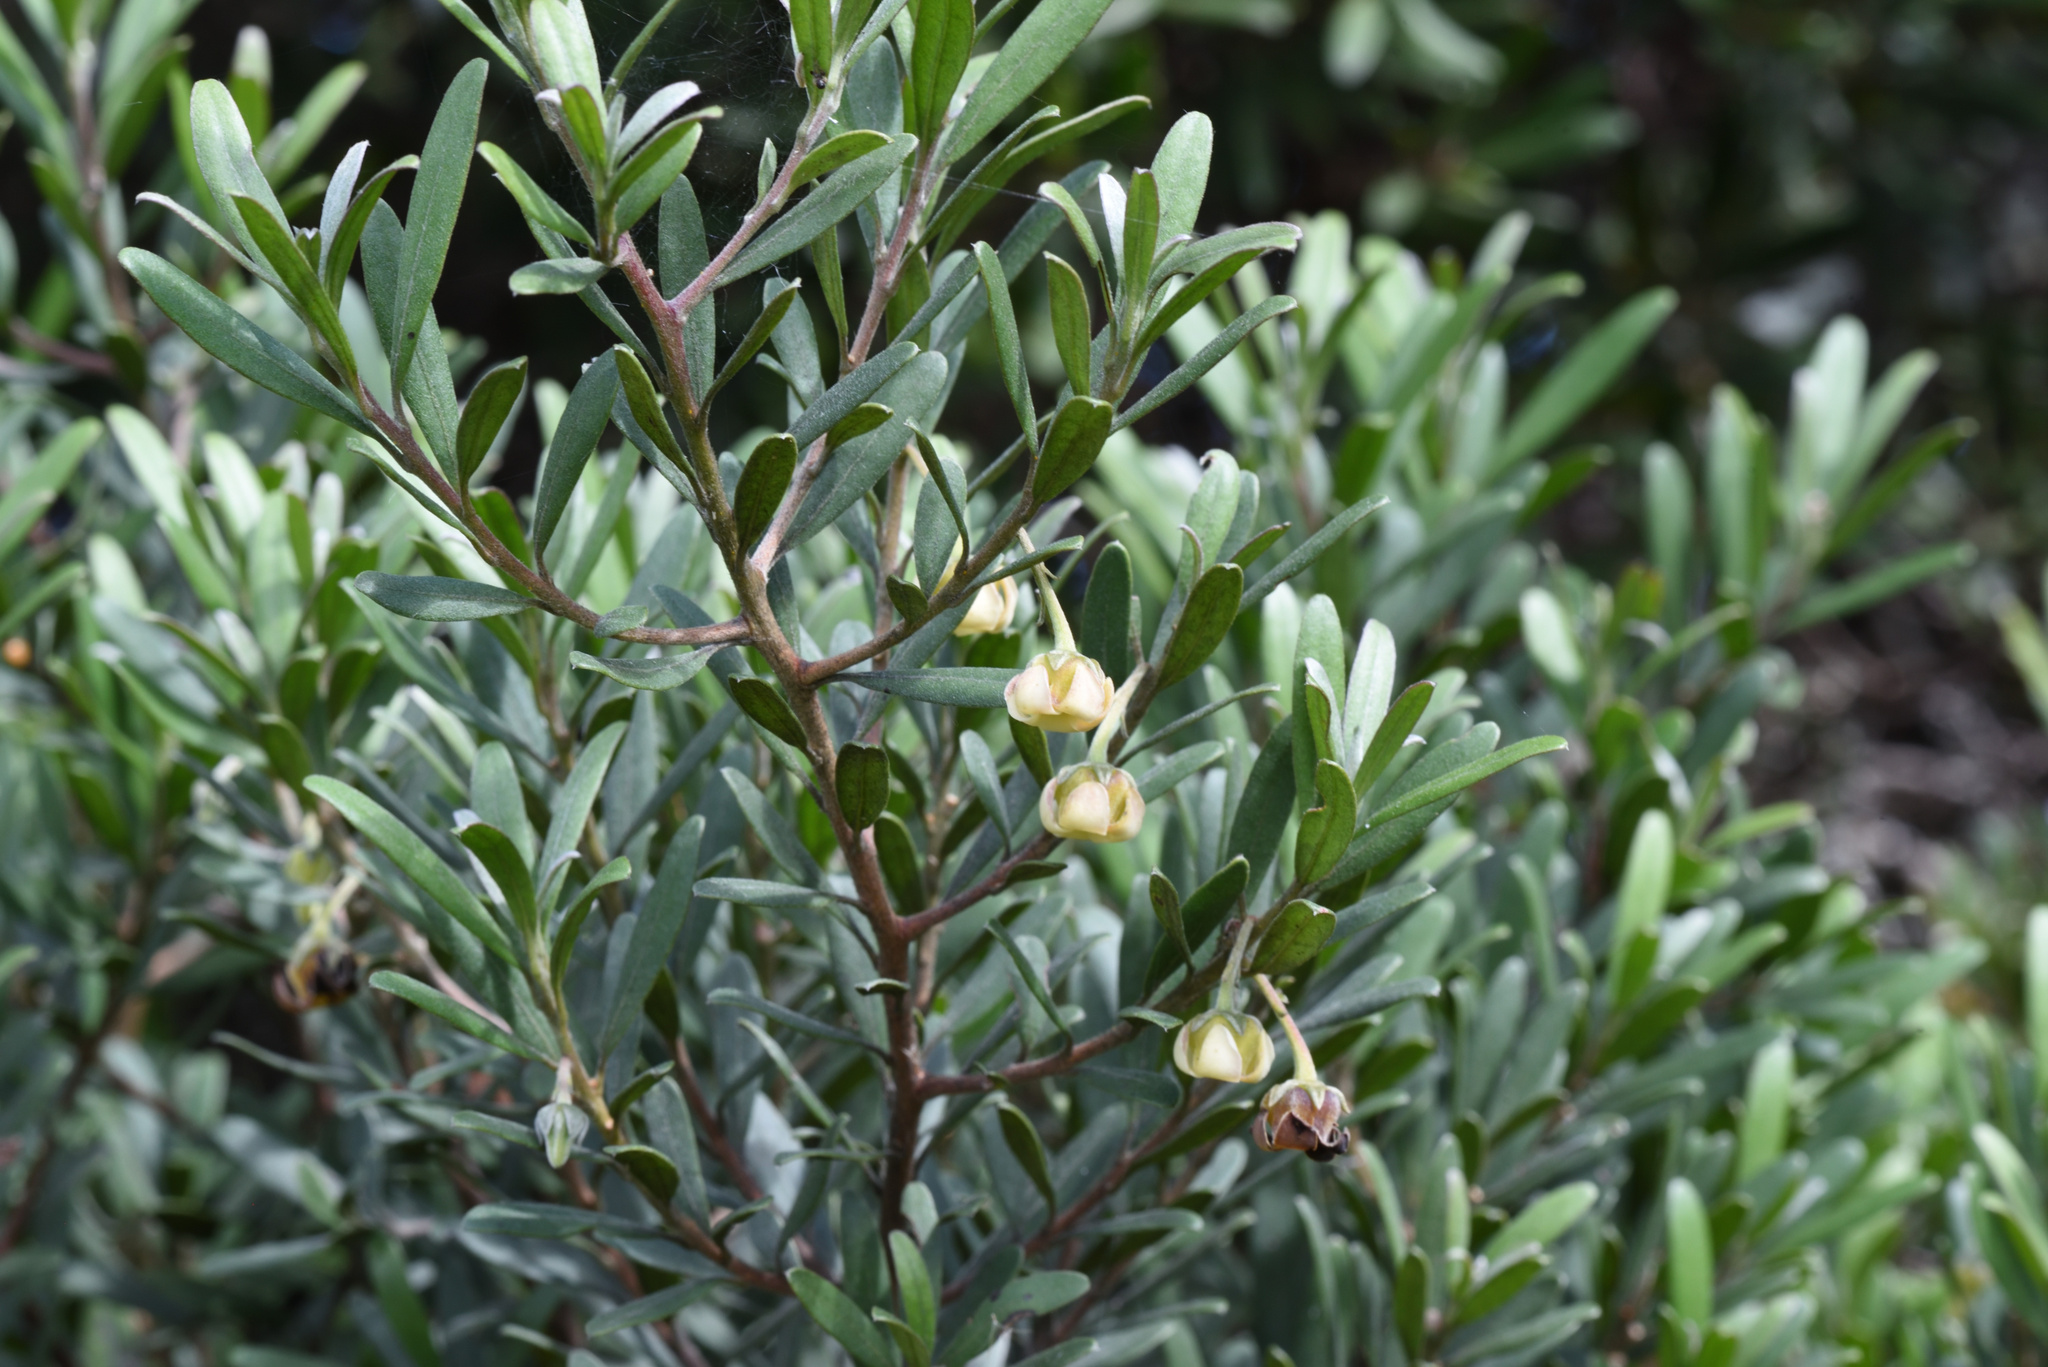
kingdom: Plantae
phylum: Tracheophyta
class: Magnoliopsida
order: Ericales
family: Ebenaceae
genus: Diospyros
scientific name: Diospyros dichrophylla
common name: Common star-apple
